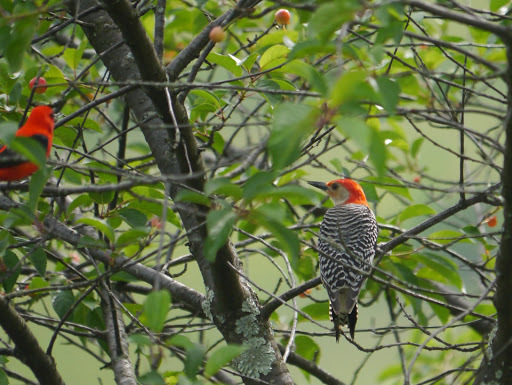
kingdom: Animalia
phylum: Chordata
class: Aves
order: Piciformes
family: Picidae
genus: Melanerpes
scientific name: Melanerpes carolinus
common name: Red-bellied woodpecker
